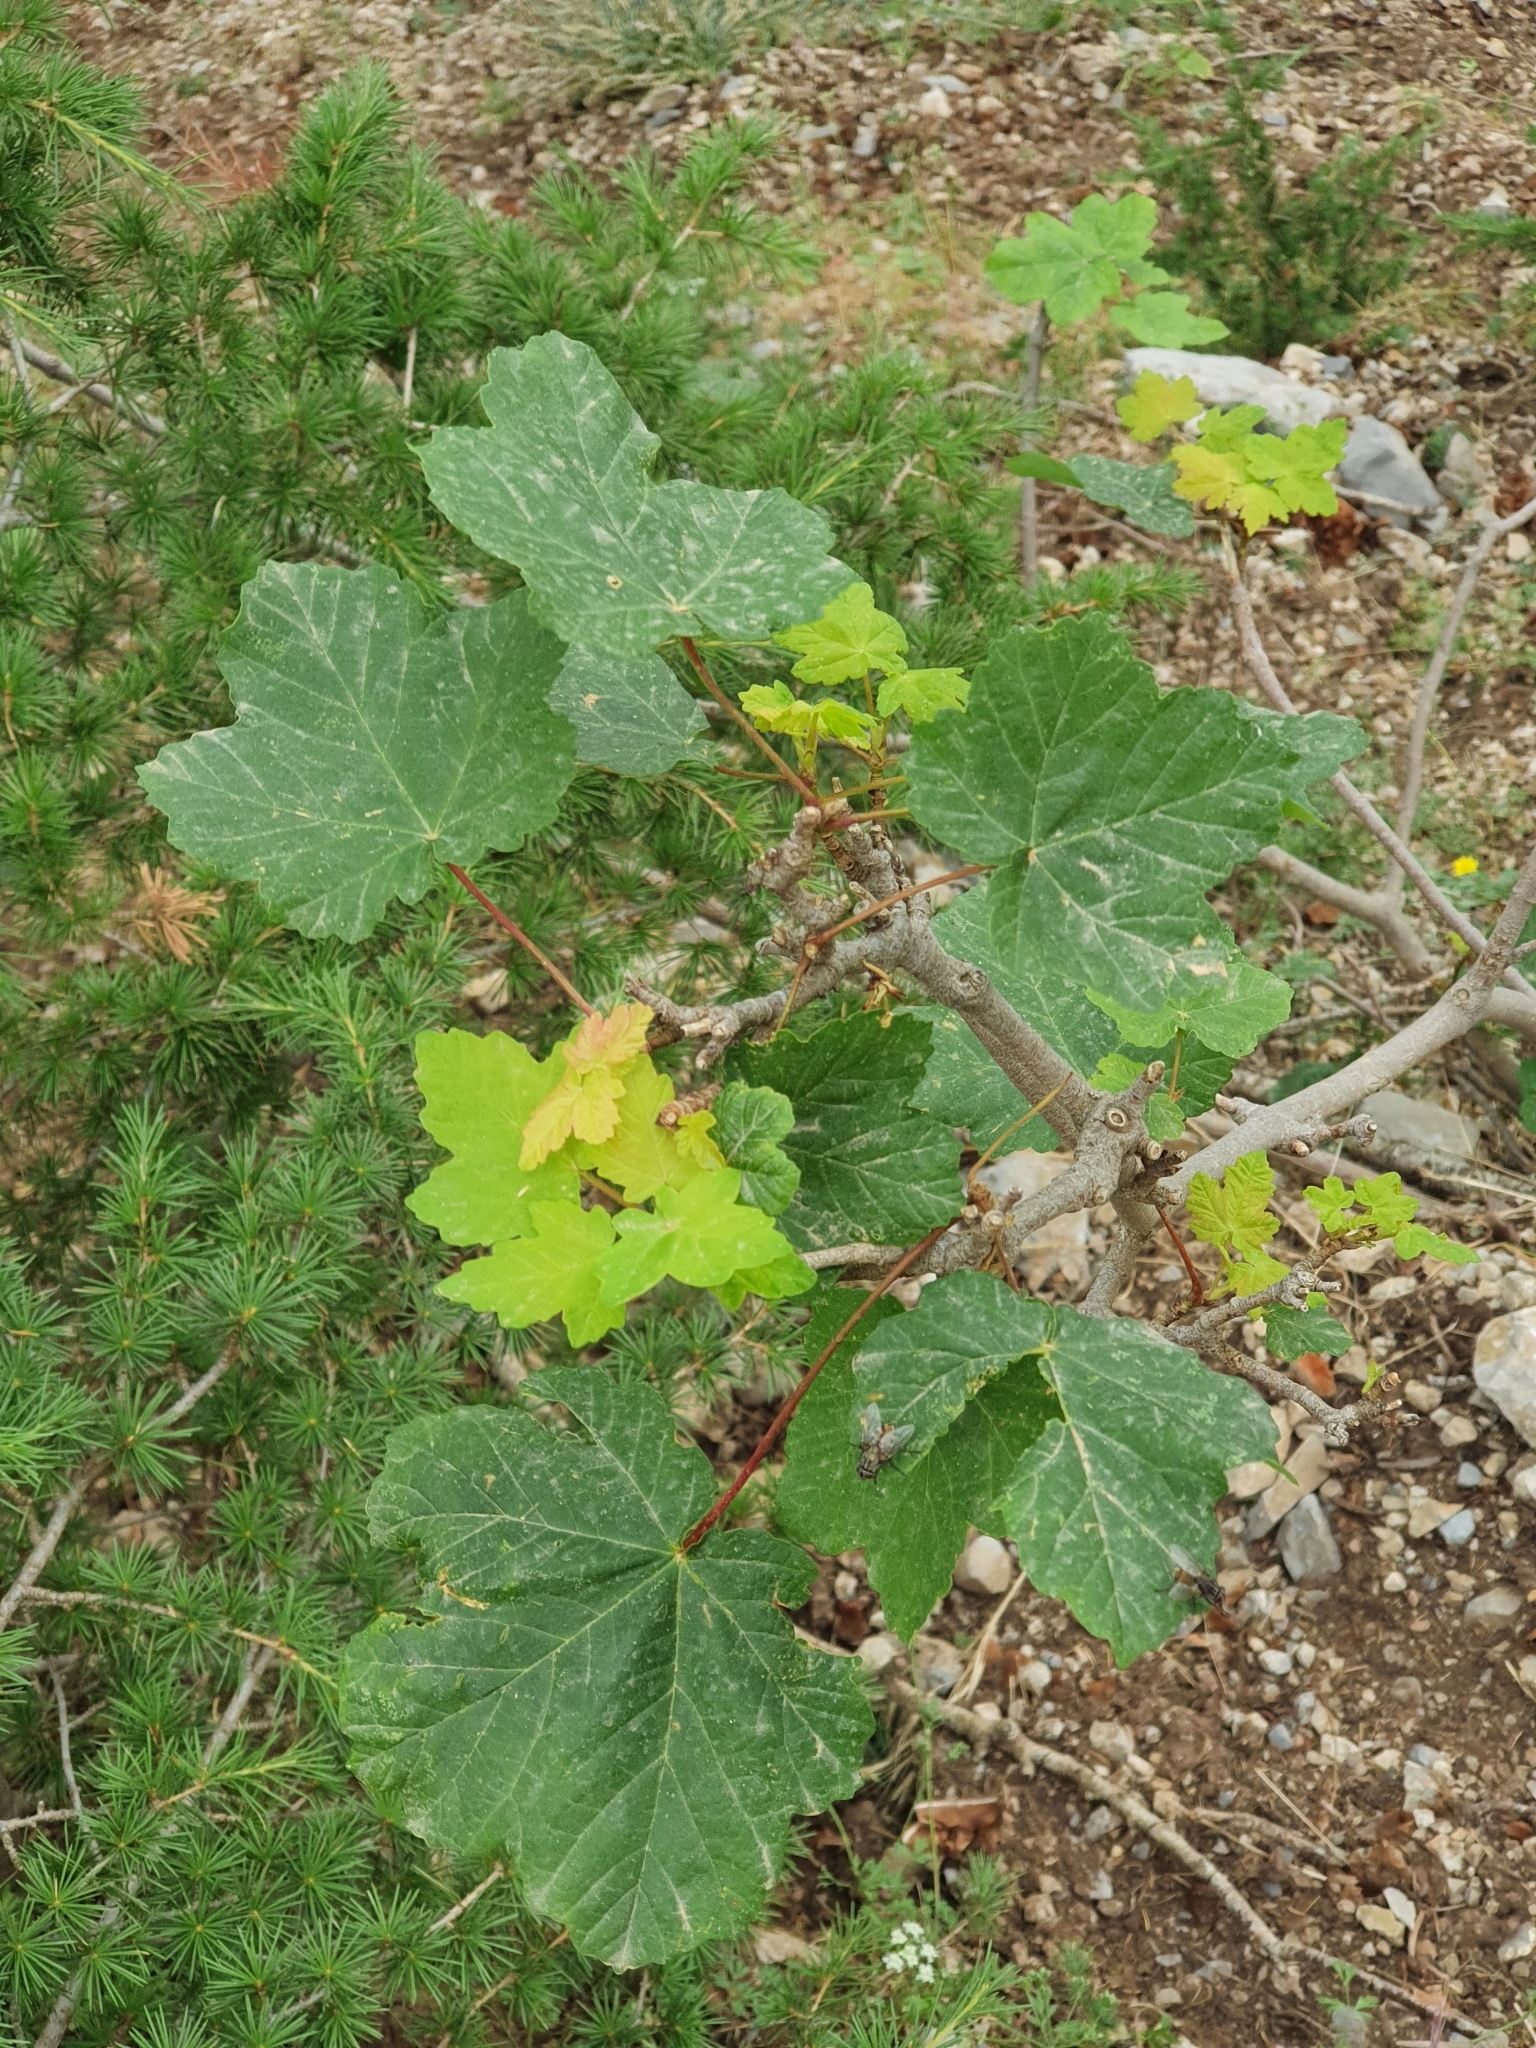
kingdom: Plantae
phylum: Tracheophyta
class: Magnoliopsida
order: Sapindales
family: Sapindaceae
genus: Acer
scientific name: Acer opalus
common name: Italian maple
